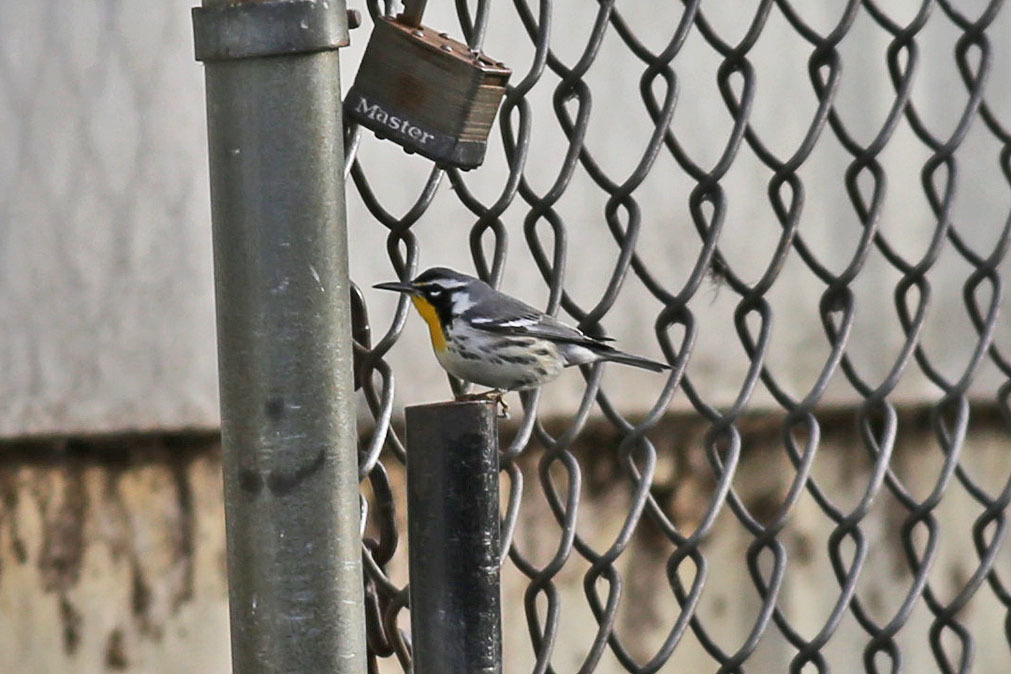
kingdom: Animalia
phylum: Chordata
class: Aves
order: Passeriformes
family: Parulidae
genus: Setophaga
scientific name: Setophaga dominica
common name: Yellow-throated warbler
